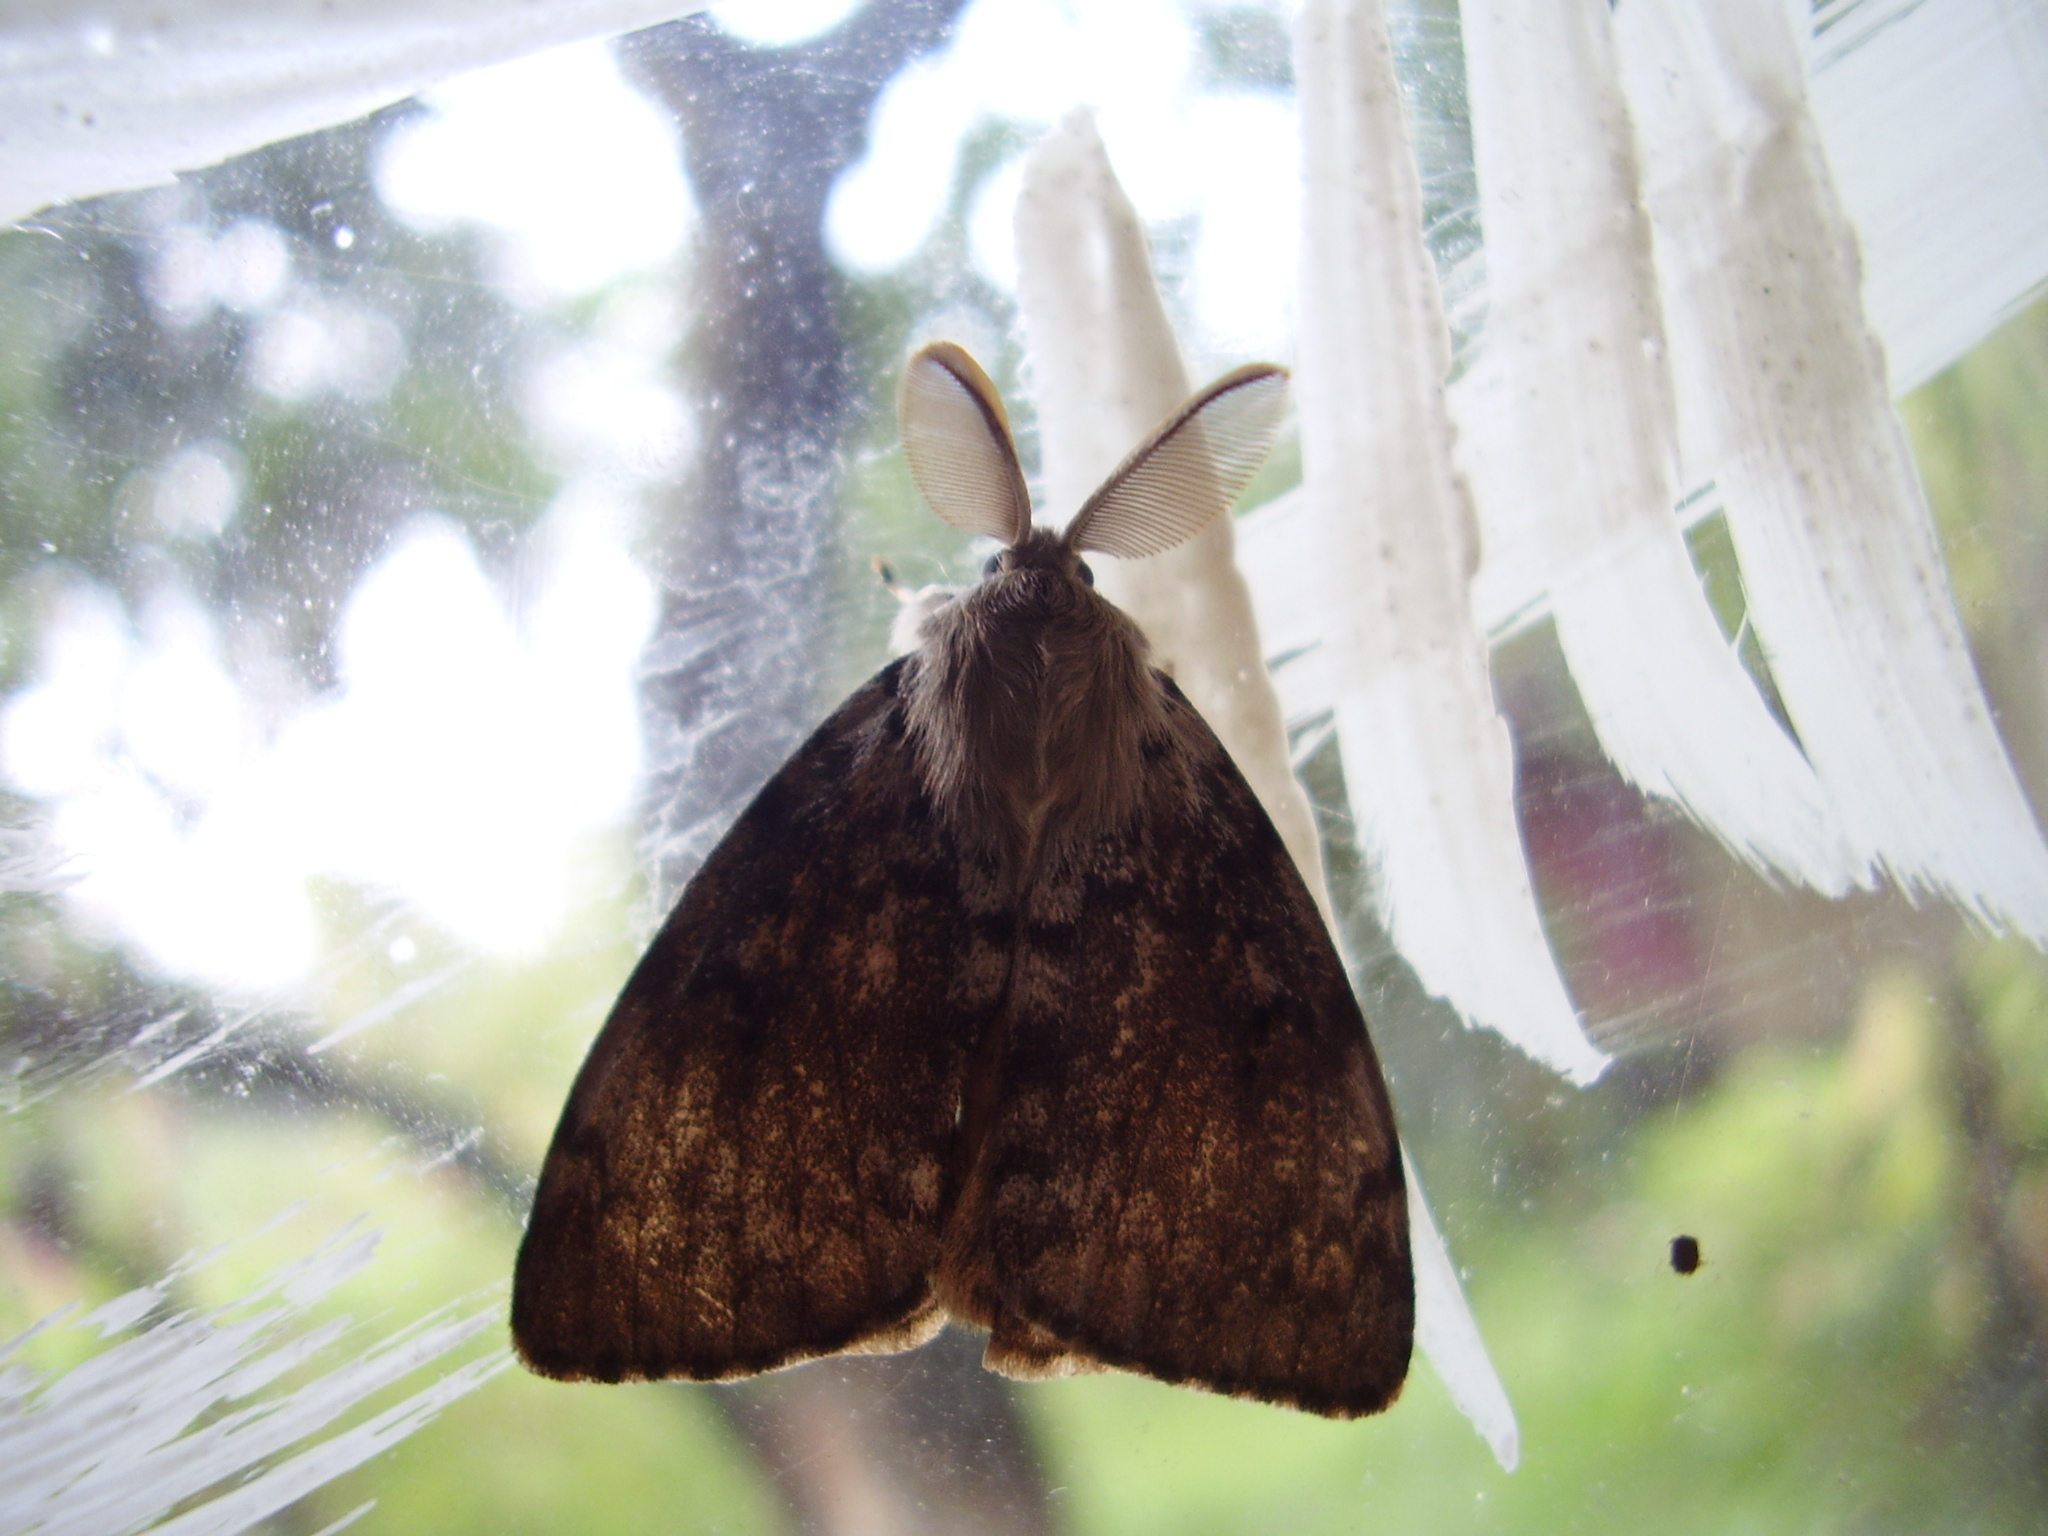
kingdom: Animalia
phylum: Arthropoda
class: Insecta
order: Lepidoptera
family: Erebidae
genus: Lymantria
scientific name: Lymantria dispar
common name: Gypsy moth
